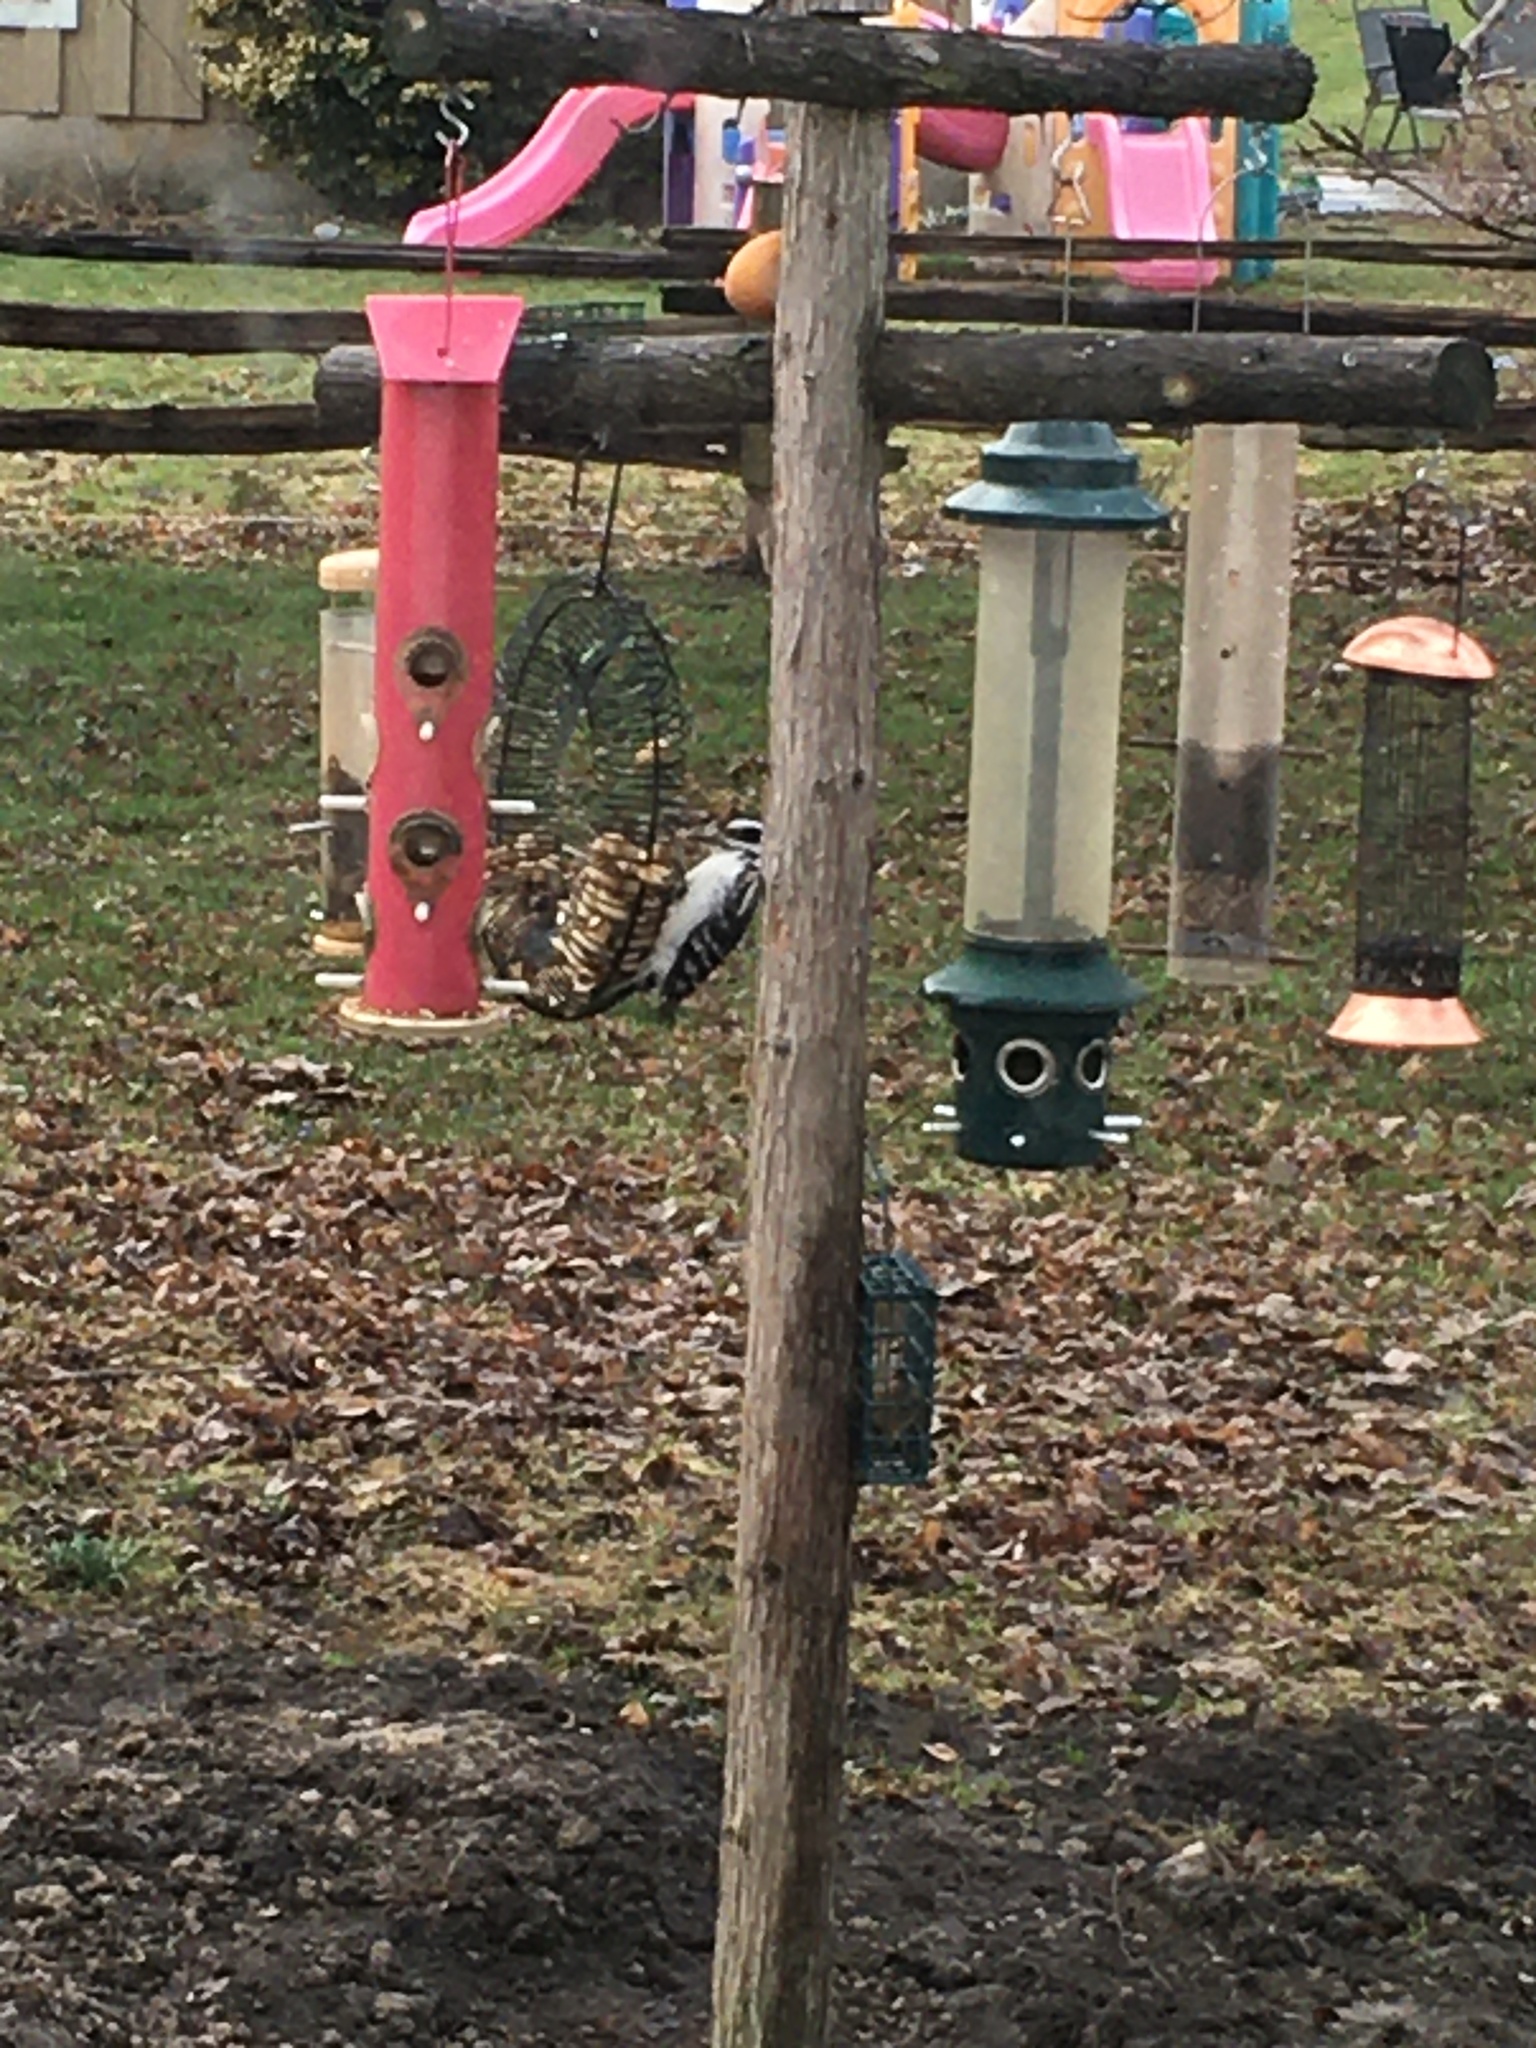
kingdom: Animalia
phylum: Chordata
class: Aves
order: Piciformes
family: Picidae
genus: Leuconotopicus
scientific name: Leuconotopicus villosus
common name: Hairy woodpecker
